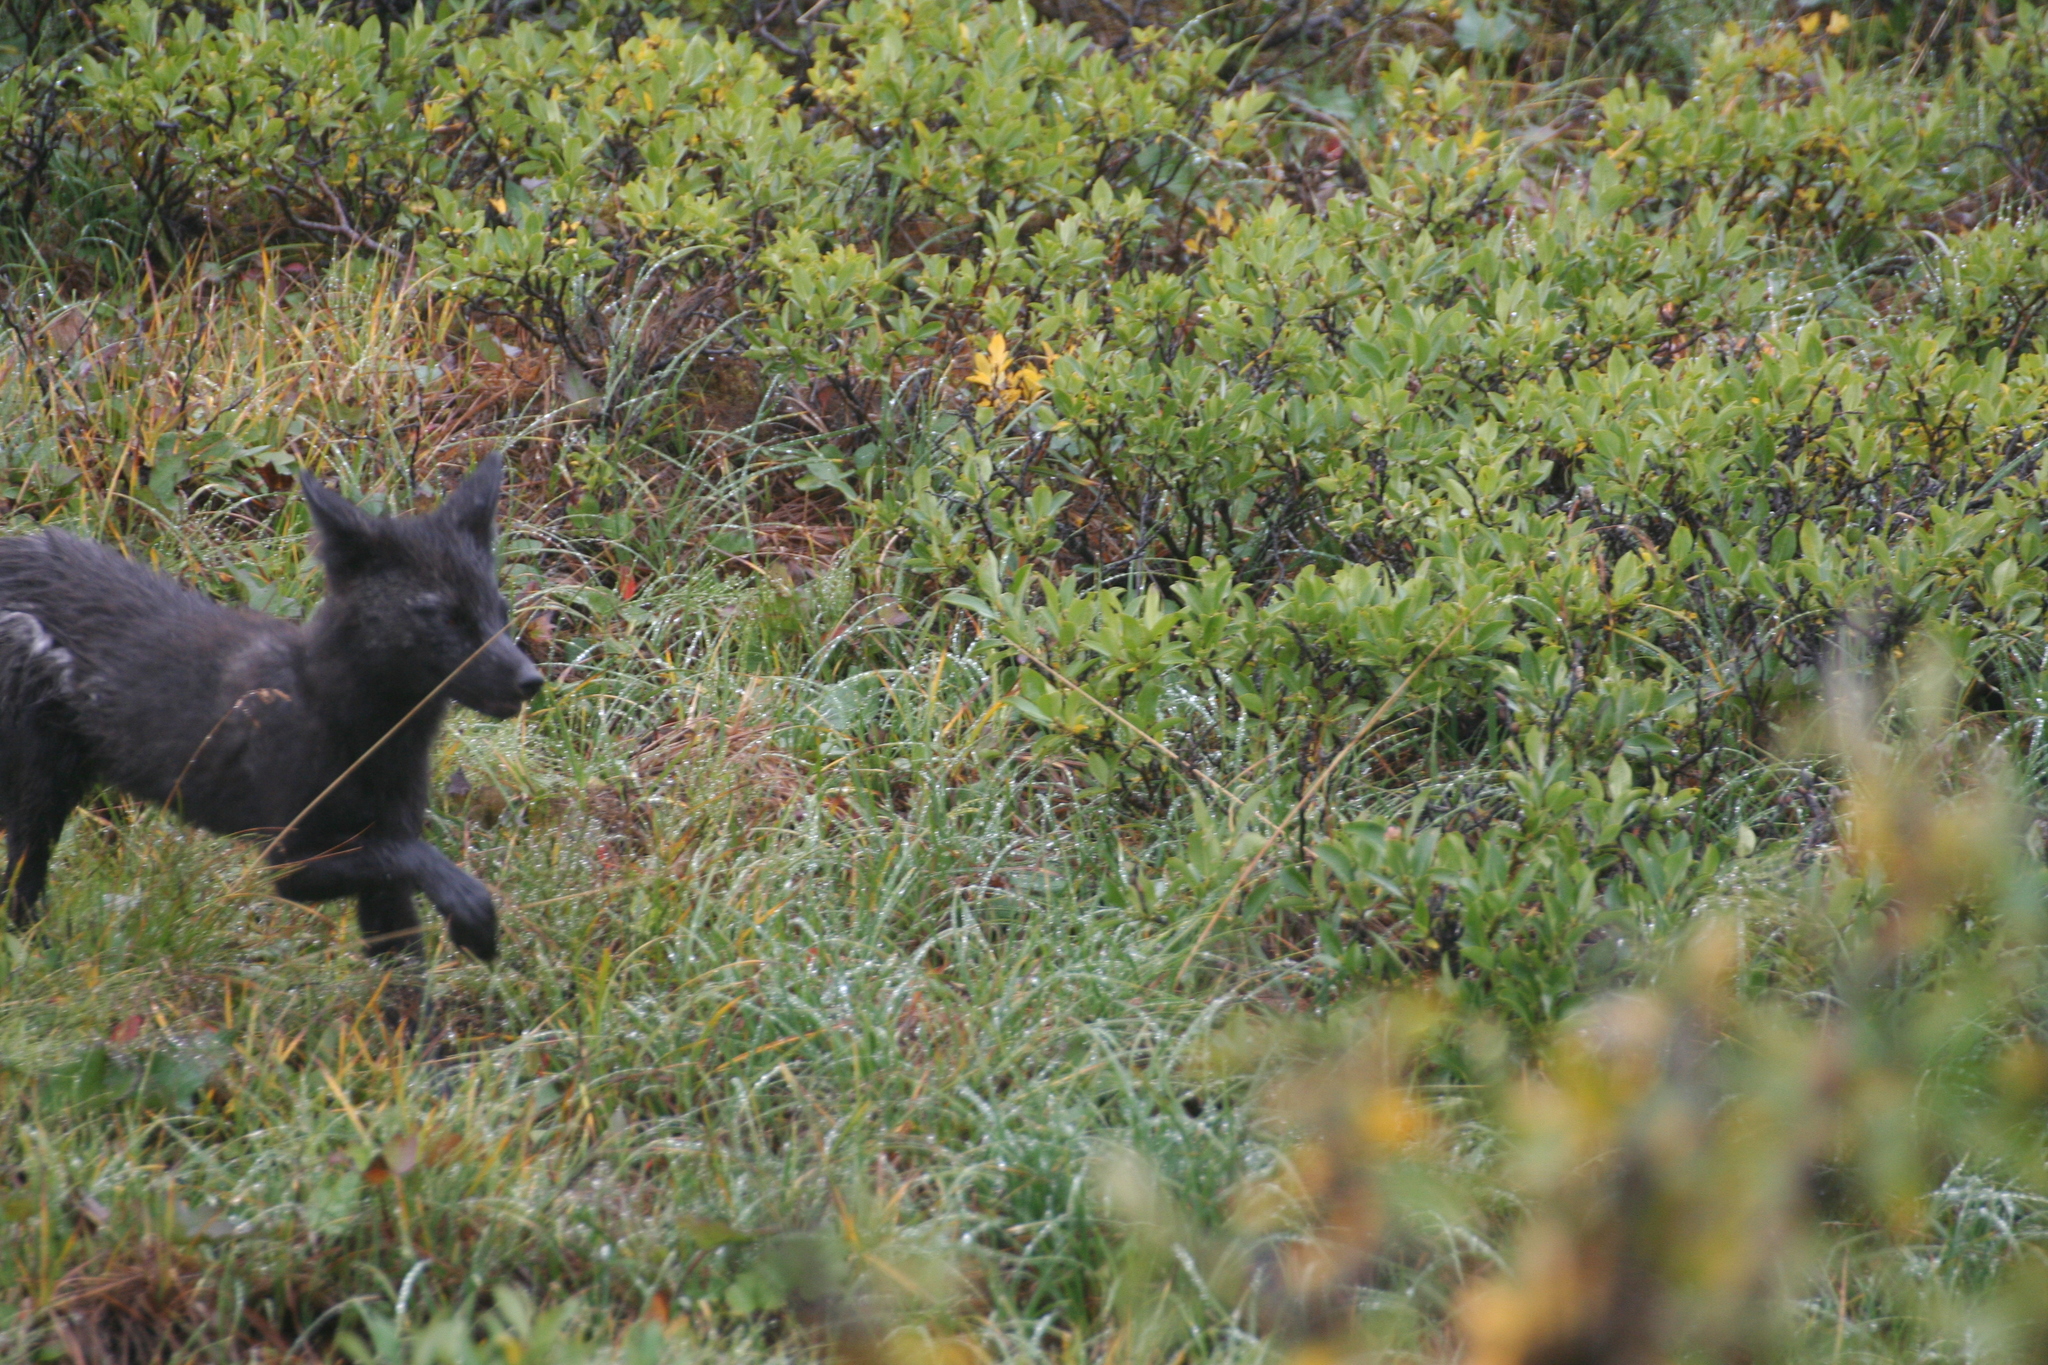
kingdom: Animalia
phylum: Chordata
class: Mammalia
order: Carnivora
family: Canidae
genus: Vulpes
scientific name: Vulpes vulpes
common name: Red fox
